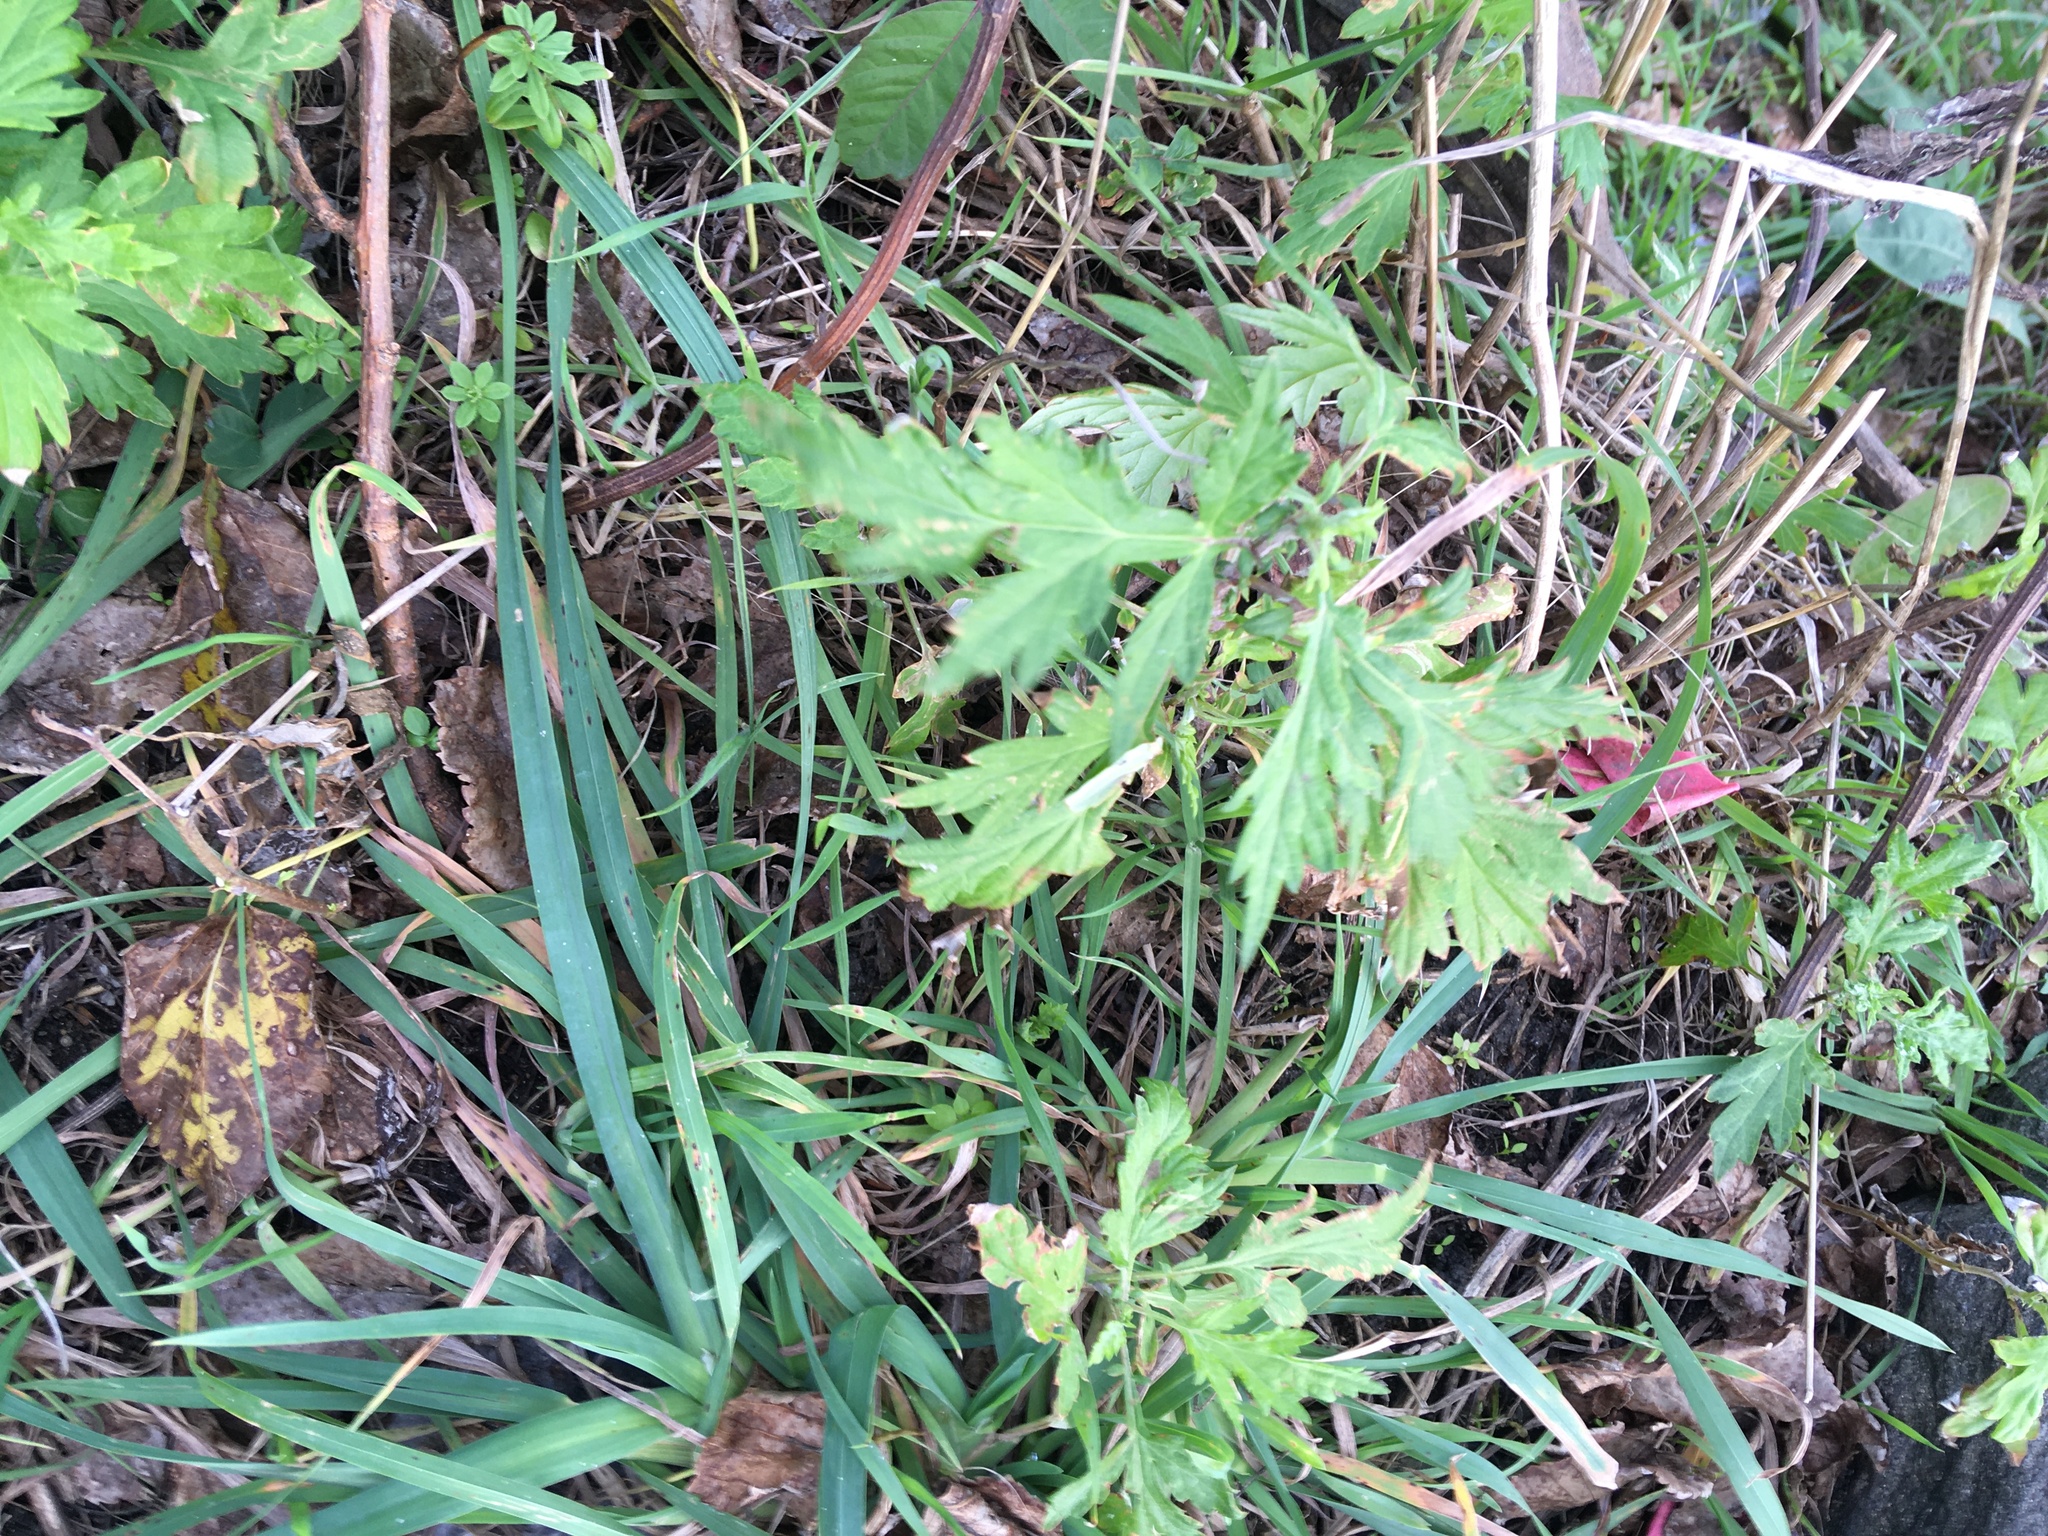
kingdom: Plantae
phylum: Tracheophyta
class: Magnoliopsida
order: Asterales
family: Asteraceae
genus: Artemisia
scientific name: Artemisia vulgaris
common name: Mugwort
